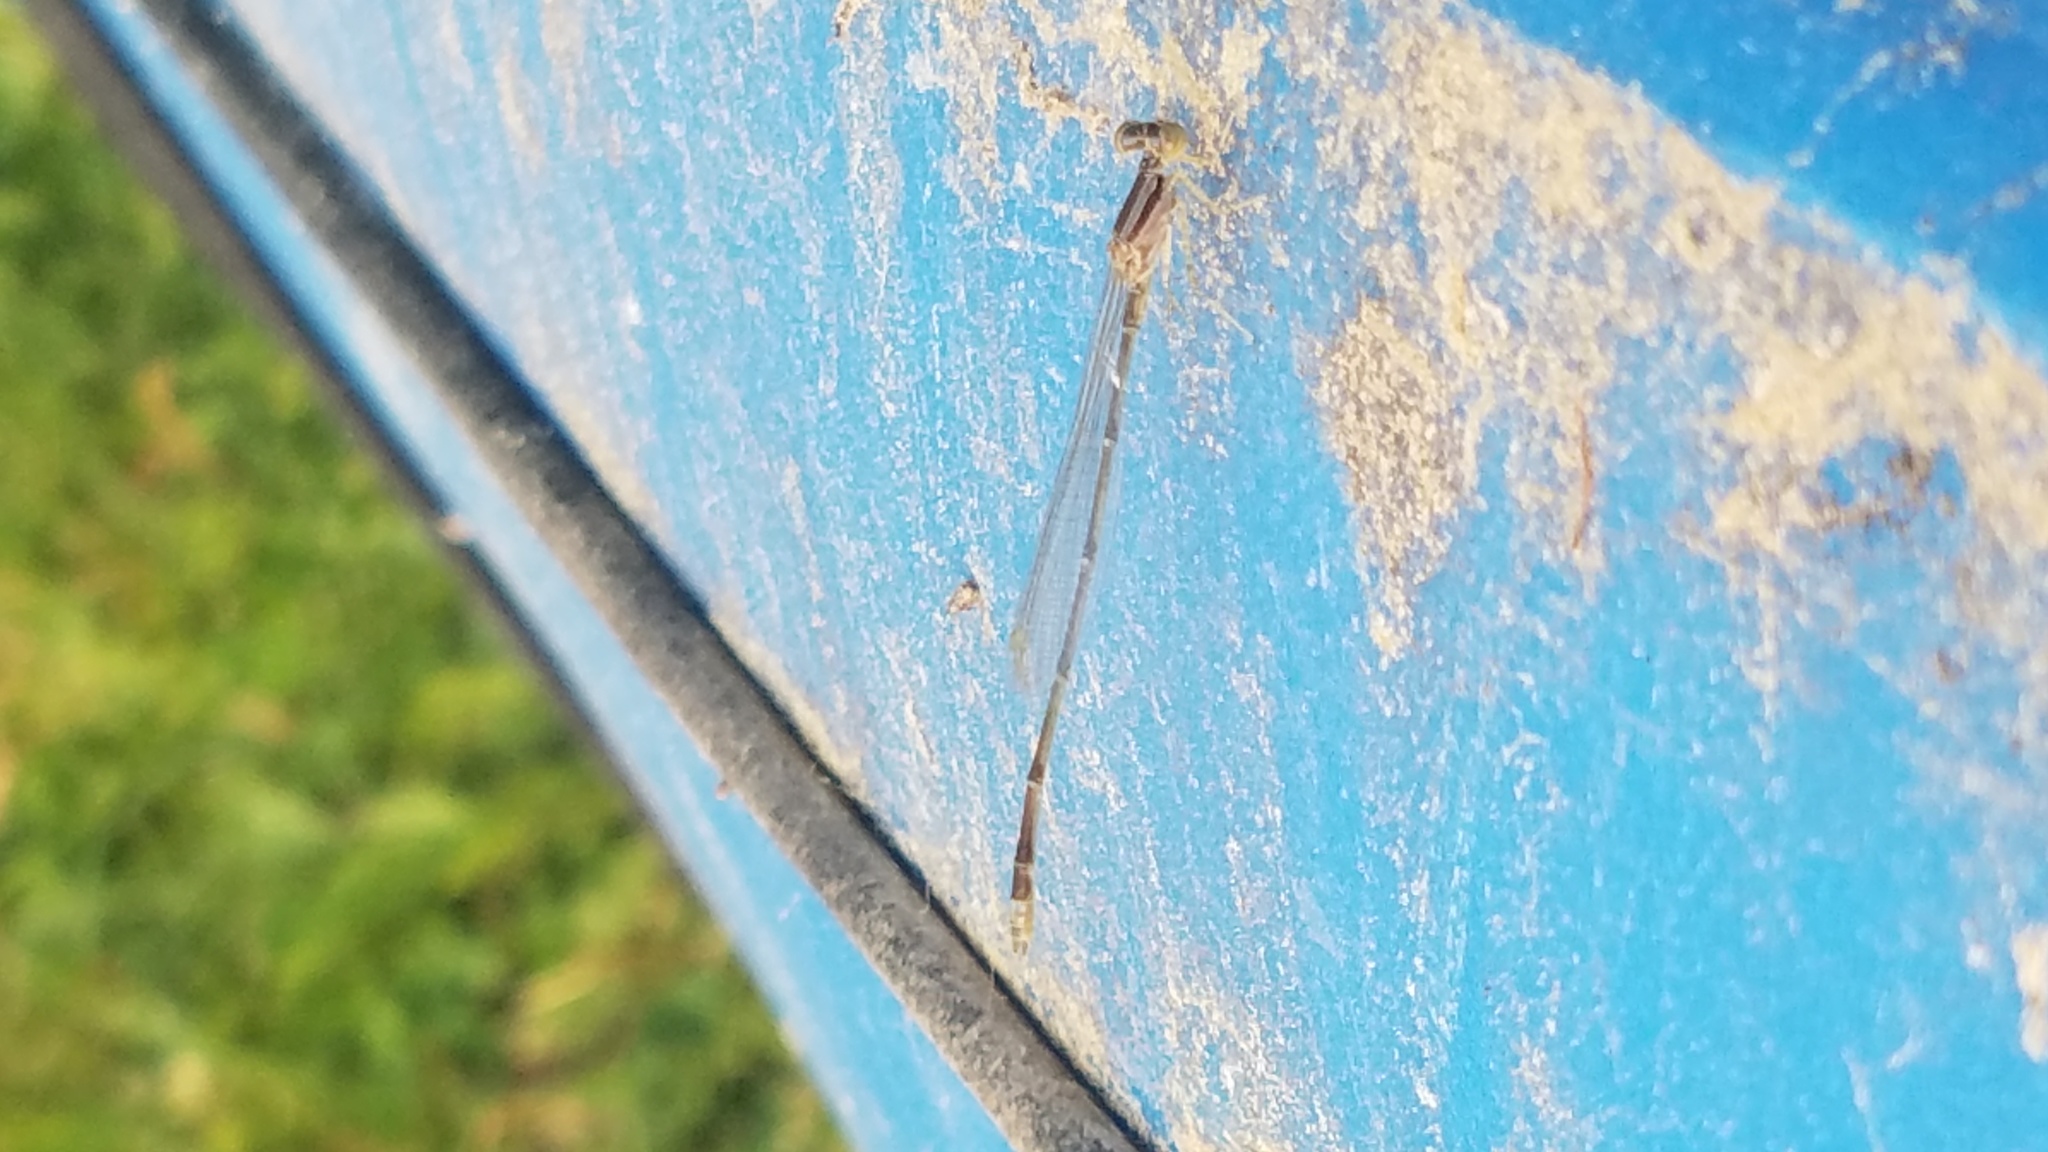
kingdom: Animalia
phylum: Arthropoda
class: Insecta
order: Odonata
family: Coenagrionidae
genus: Enallagma
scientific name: Enallagma signatum
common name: Orange bluet
